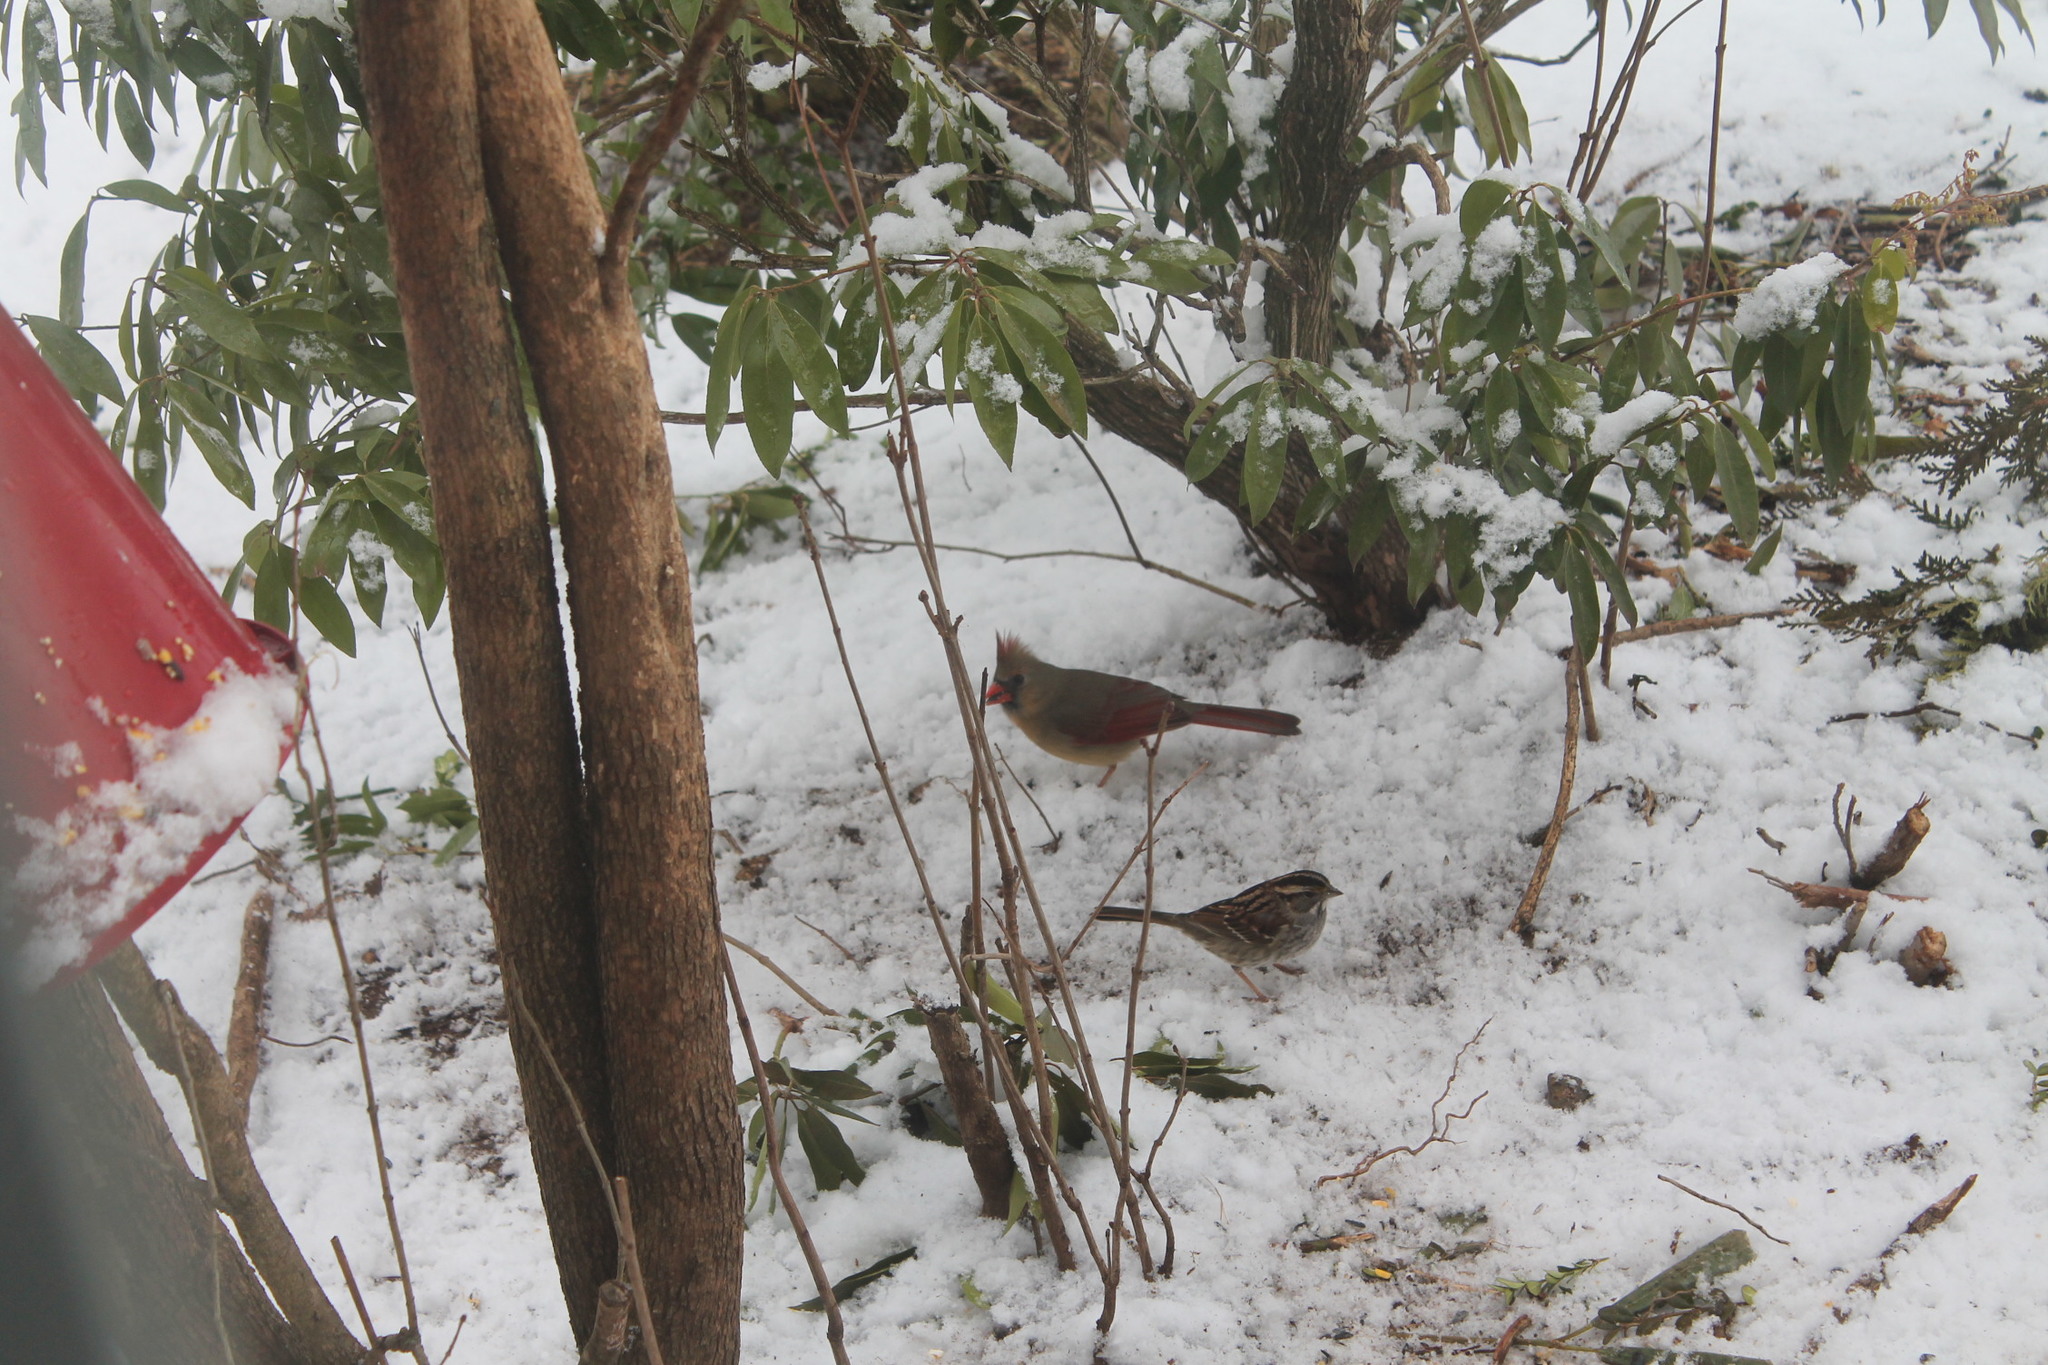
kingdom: Animalia
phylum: Chordata
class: Aves
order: Passeriformes
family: Passerellidae
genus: Zonotrichia
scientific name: Zonotrichia albicollis
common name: White-throated sparrow
